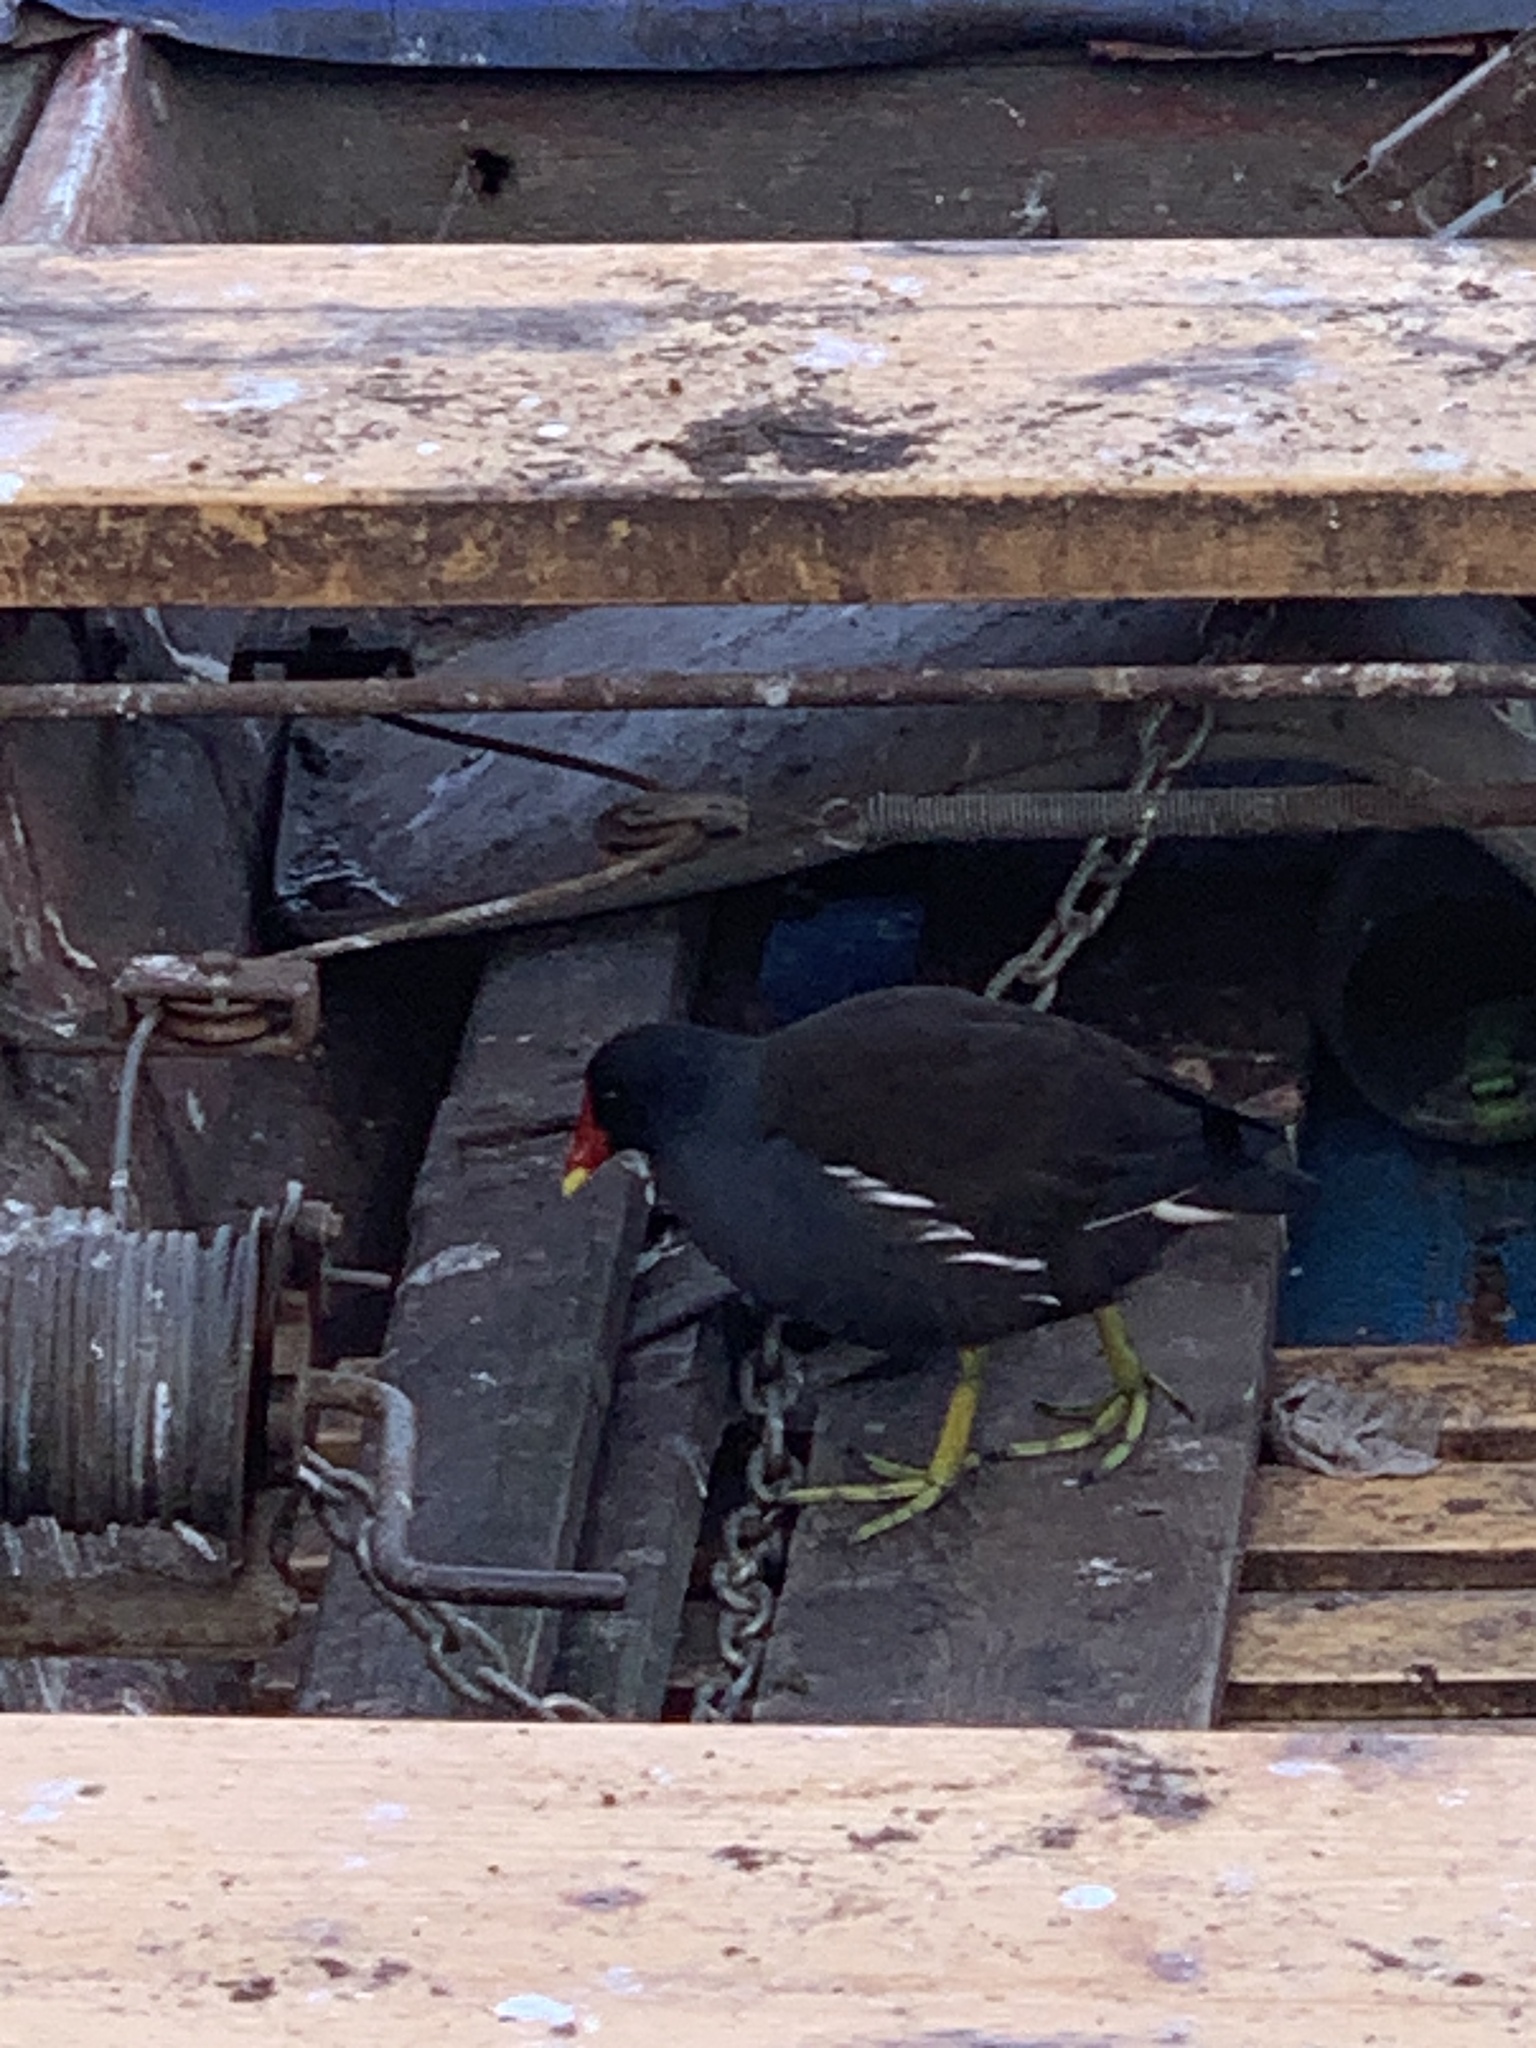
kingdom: Animalia
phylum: Chordata
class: Aves
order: Gruiformes
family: Rallidae
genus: Gallinula
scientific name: Gallinula chloropus
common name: Common moorhen
